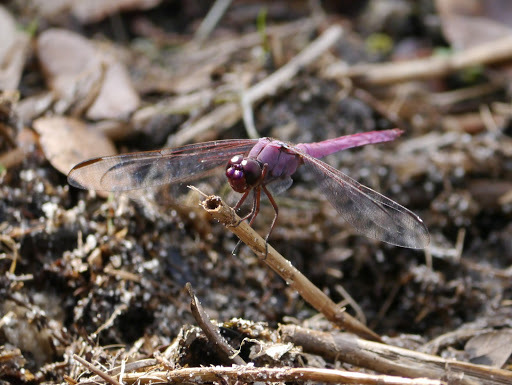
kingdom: Animalia
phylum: Arthropoda
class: Insecta
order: Odonata
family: Libellulidae
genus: Orthemis
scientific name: Orthemis ferruginea
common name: Roseate skimmer
